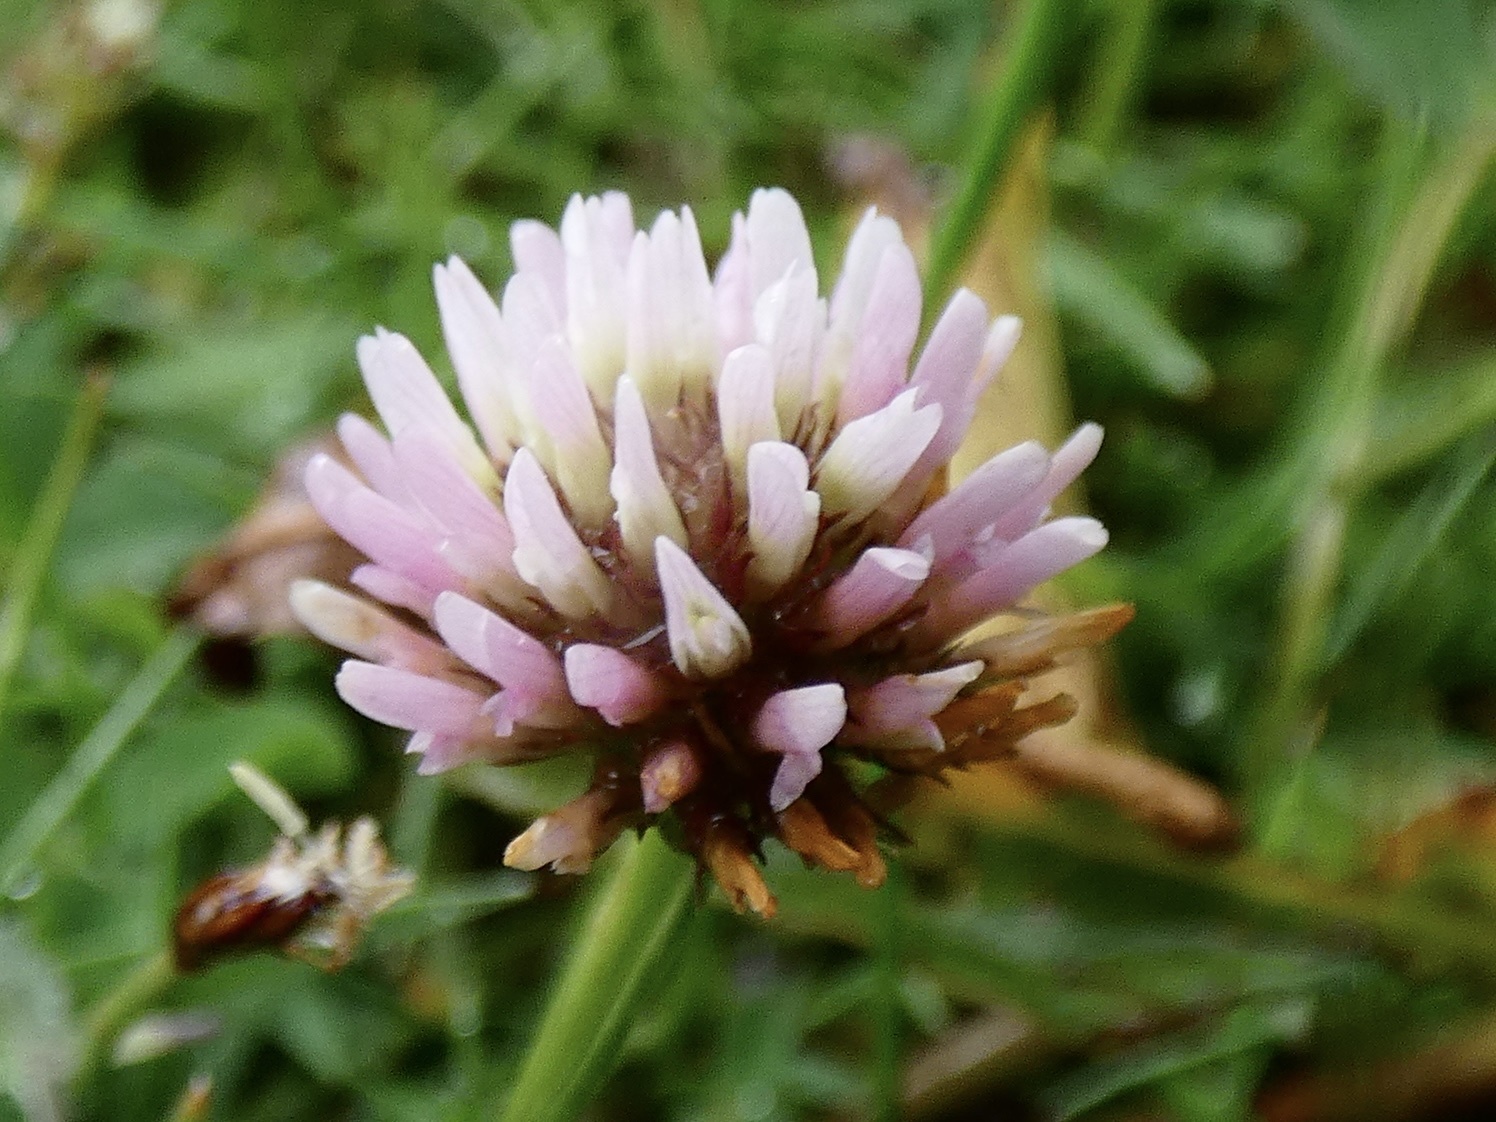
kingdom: Plantae
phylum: Tracheophyta
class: Magnoliopsida
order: Fabales
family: Fabaceae
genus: Trifolium
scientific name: Trifolium fragiferum
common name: Strawberry clover
